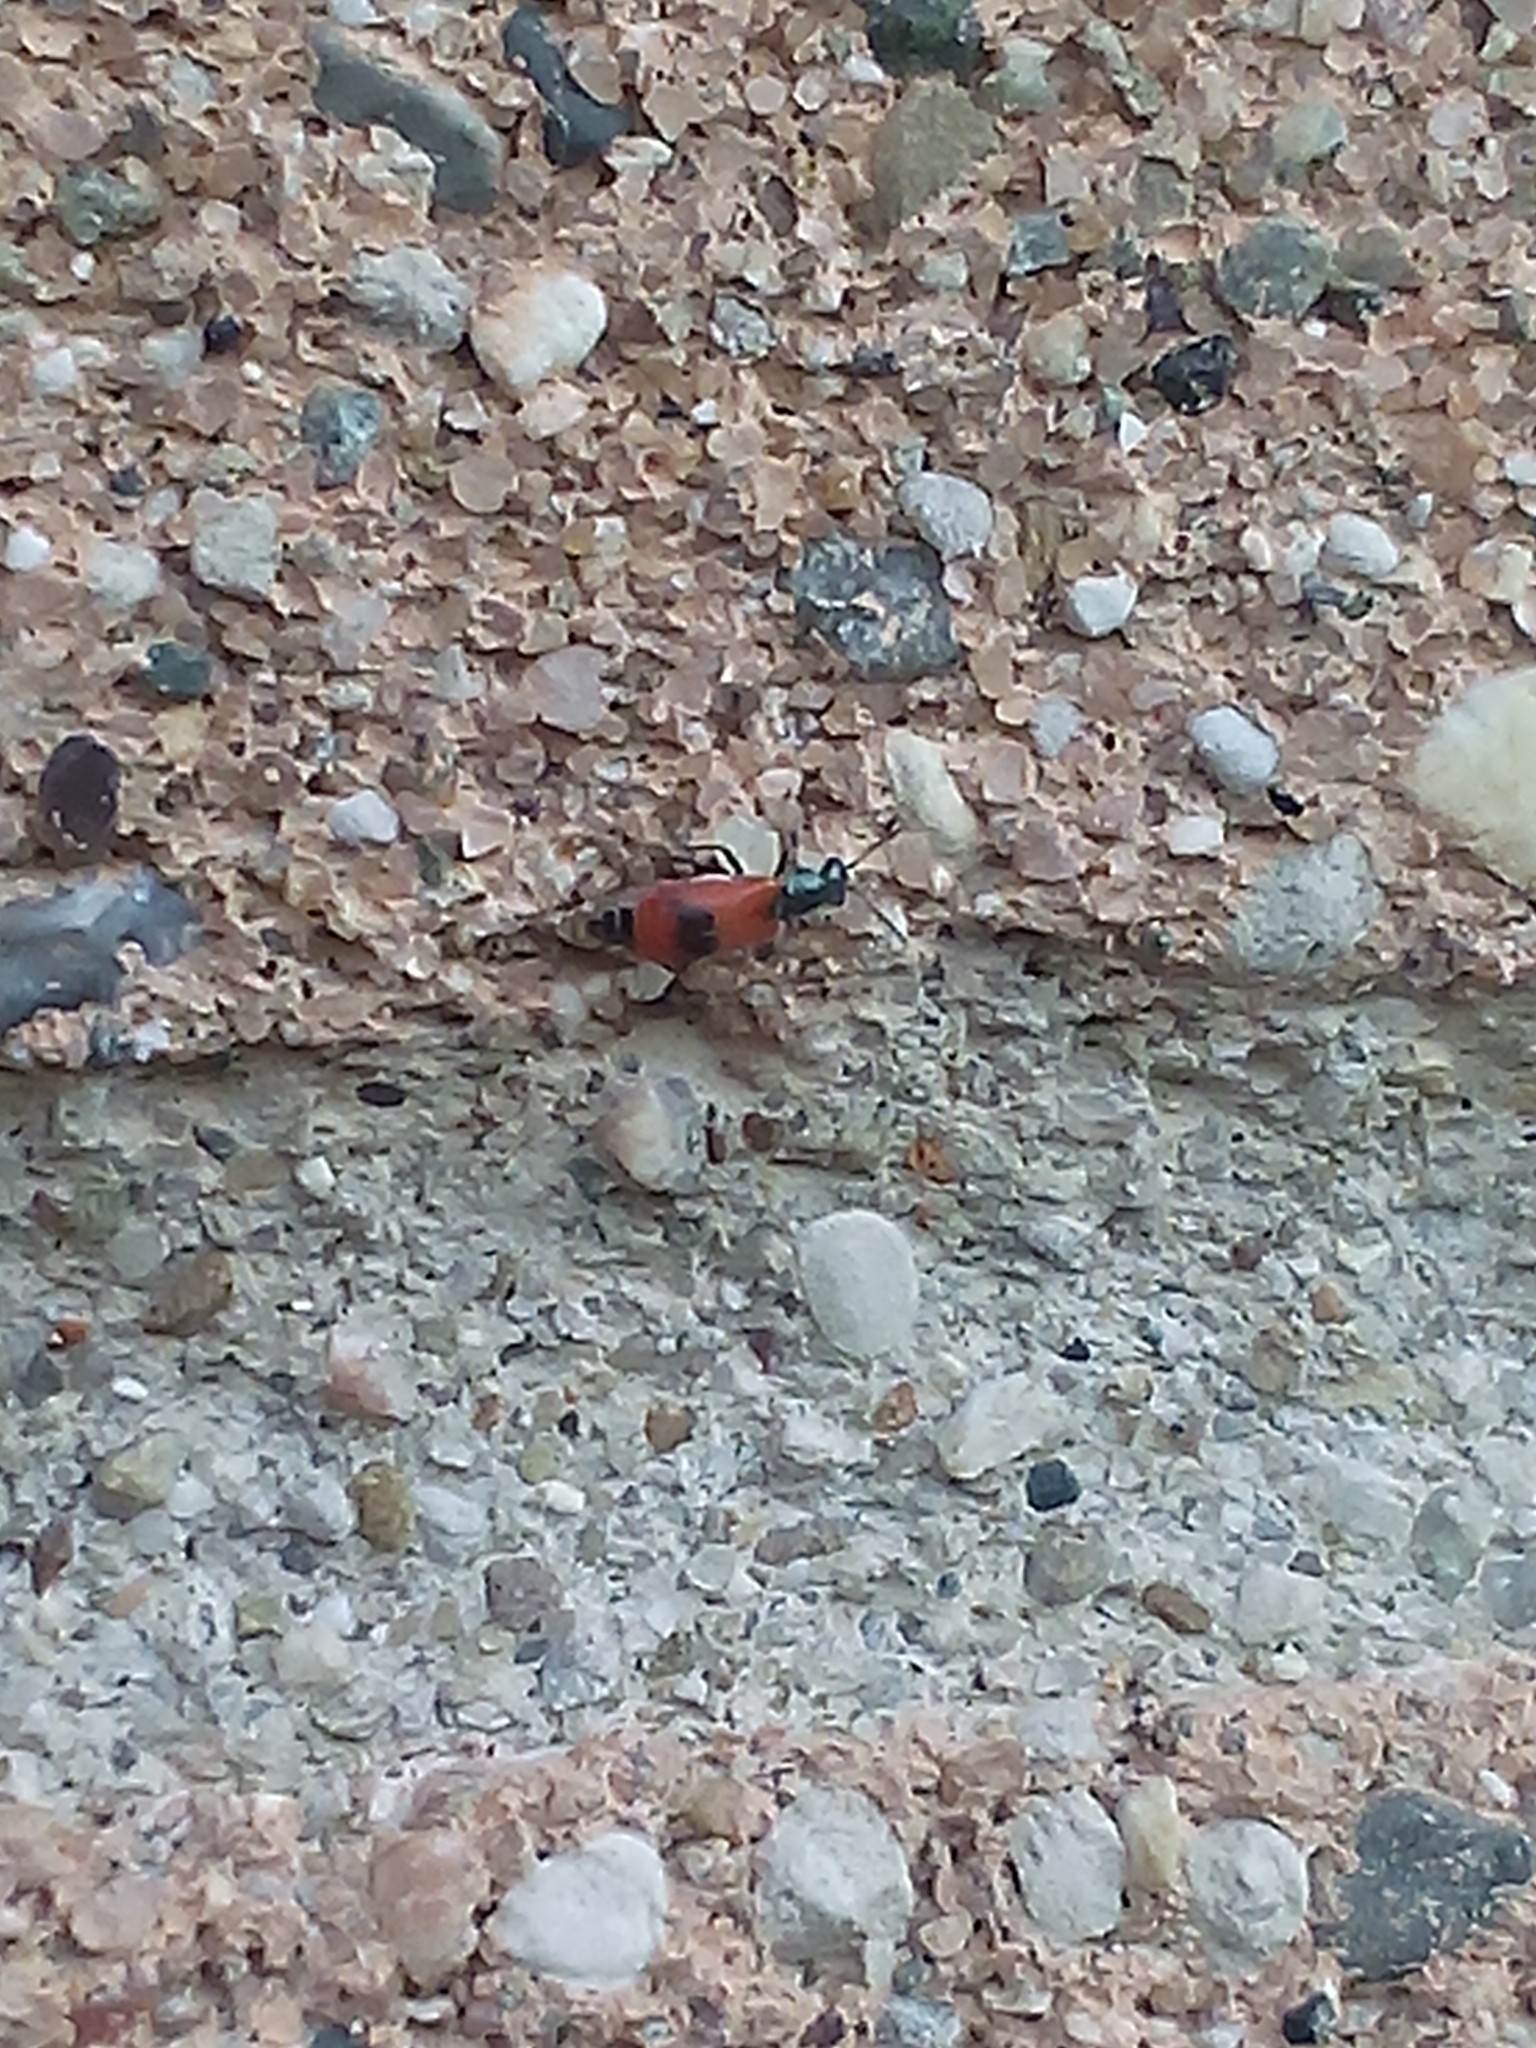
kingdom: Animalia
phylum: Arthropoda
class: Insecta
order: Coleoptera
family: Melyridae
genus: Anthocomus
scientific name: Anthocomus equestris
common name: Black-banded soft-winged flower beetle
